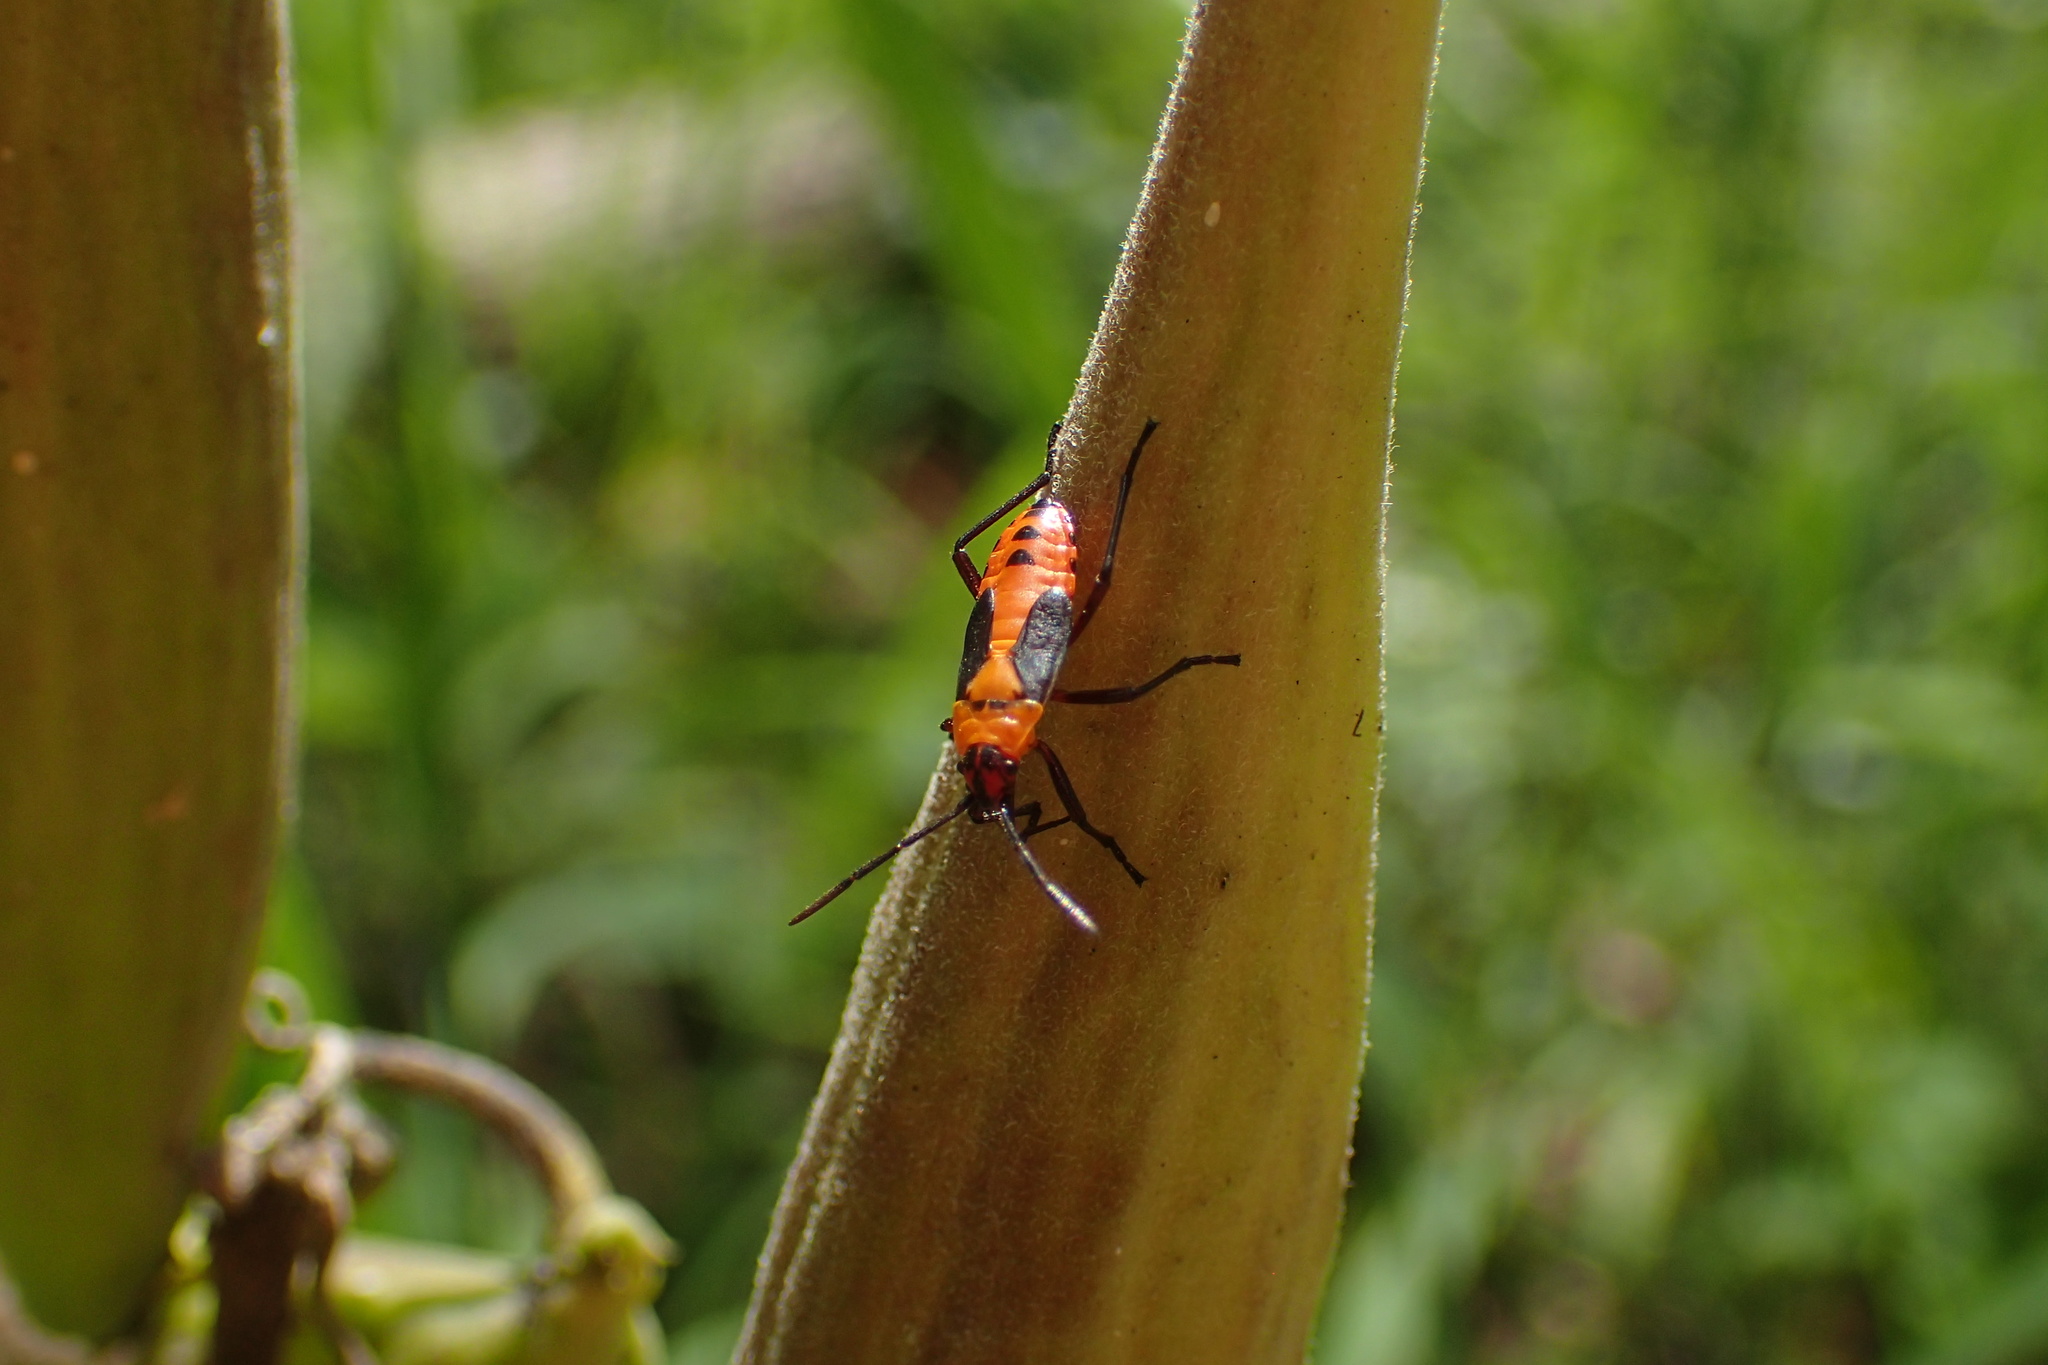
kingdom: Animalia
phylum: Arthropoda
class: Insecta
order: Hemiptera
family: Lygaeidae
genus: Oncopeltus
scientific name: Oncopeltus fasciatus
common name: Large milkweed bug
